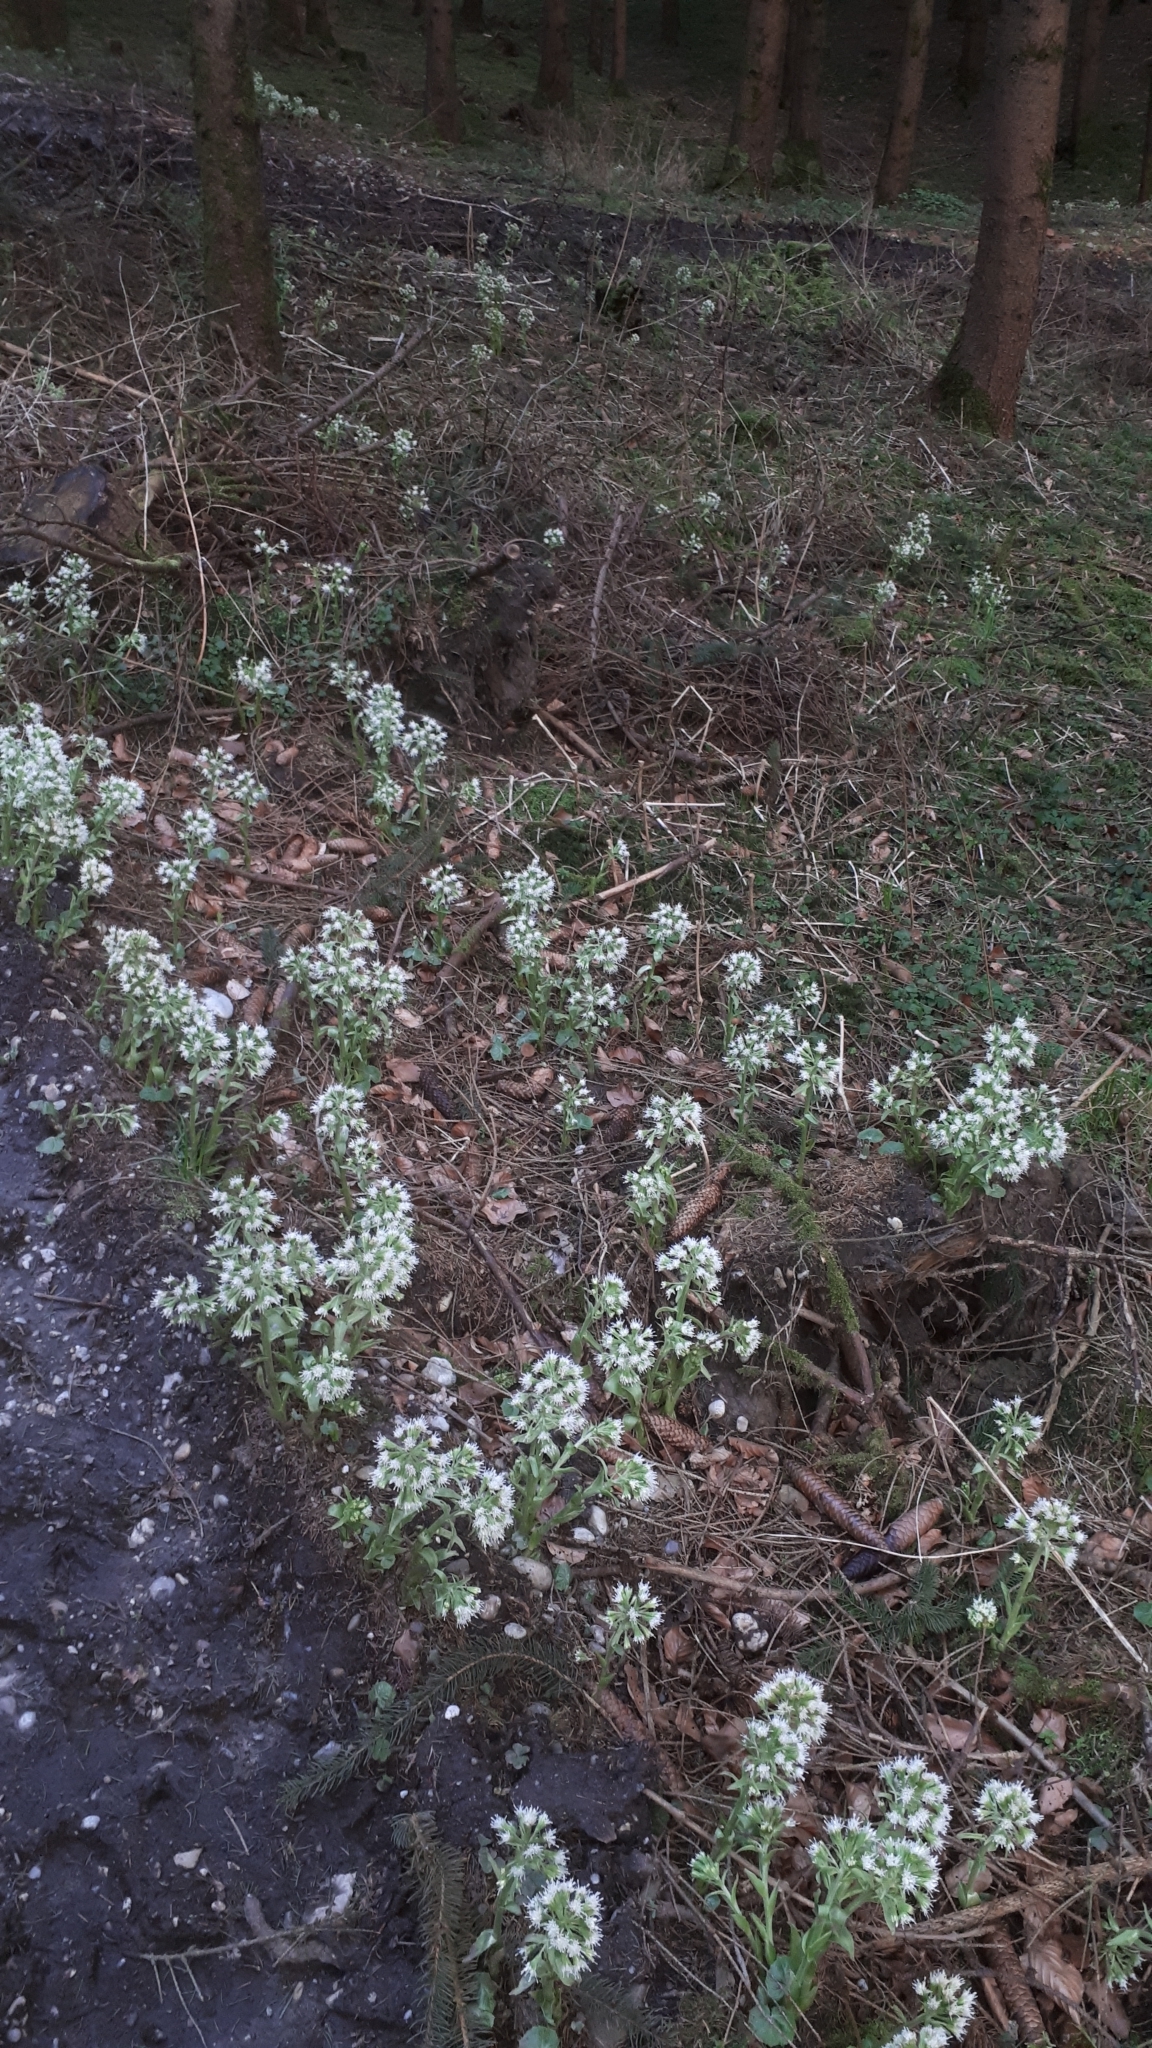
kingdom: Plantae
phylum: Tracheophyta
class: Magnoliopsida
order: Asterales
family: Asteraceae
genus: Petasites
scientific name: Petasites albus
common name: White butterbur
